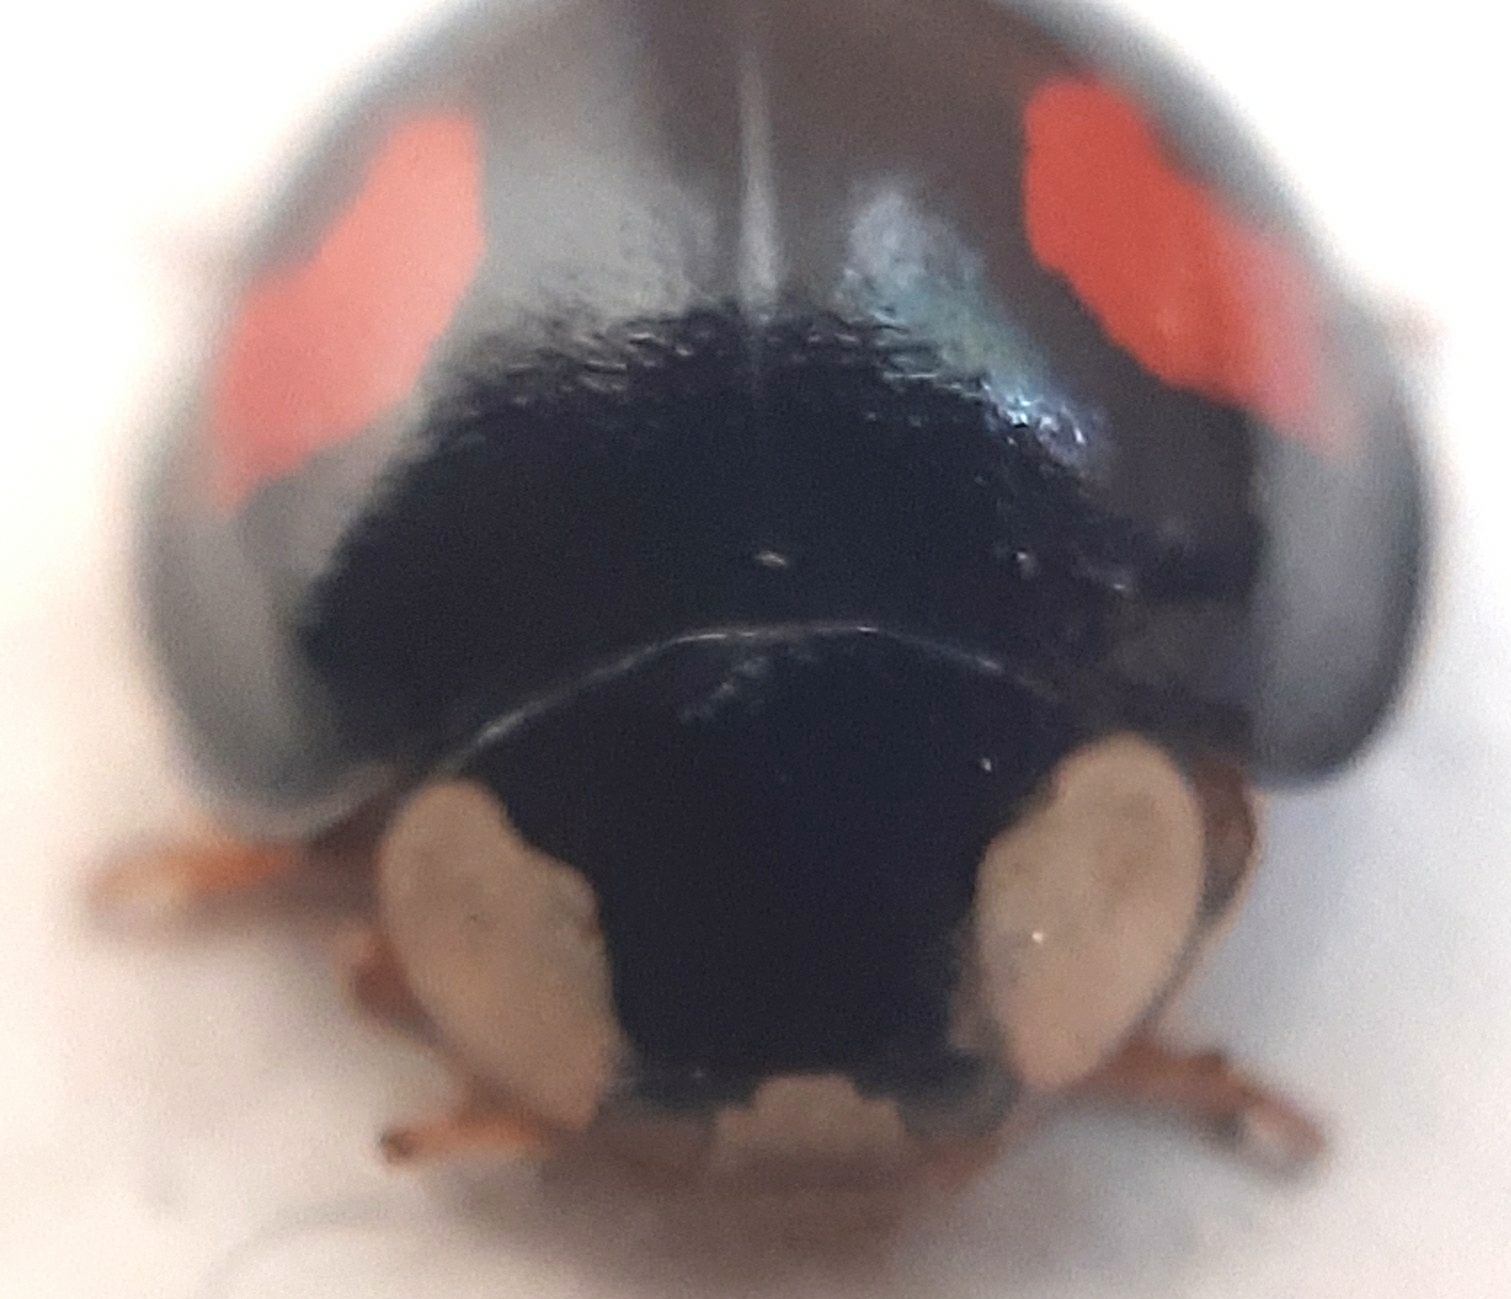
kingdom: Animalia
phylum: Arthropoda
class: Insecta
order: Coleoptera
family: Coccinellidae
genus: Harmonia
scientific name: Harmonia axyridis
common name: Harlequin ladybird
